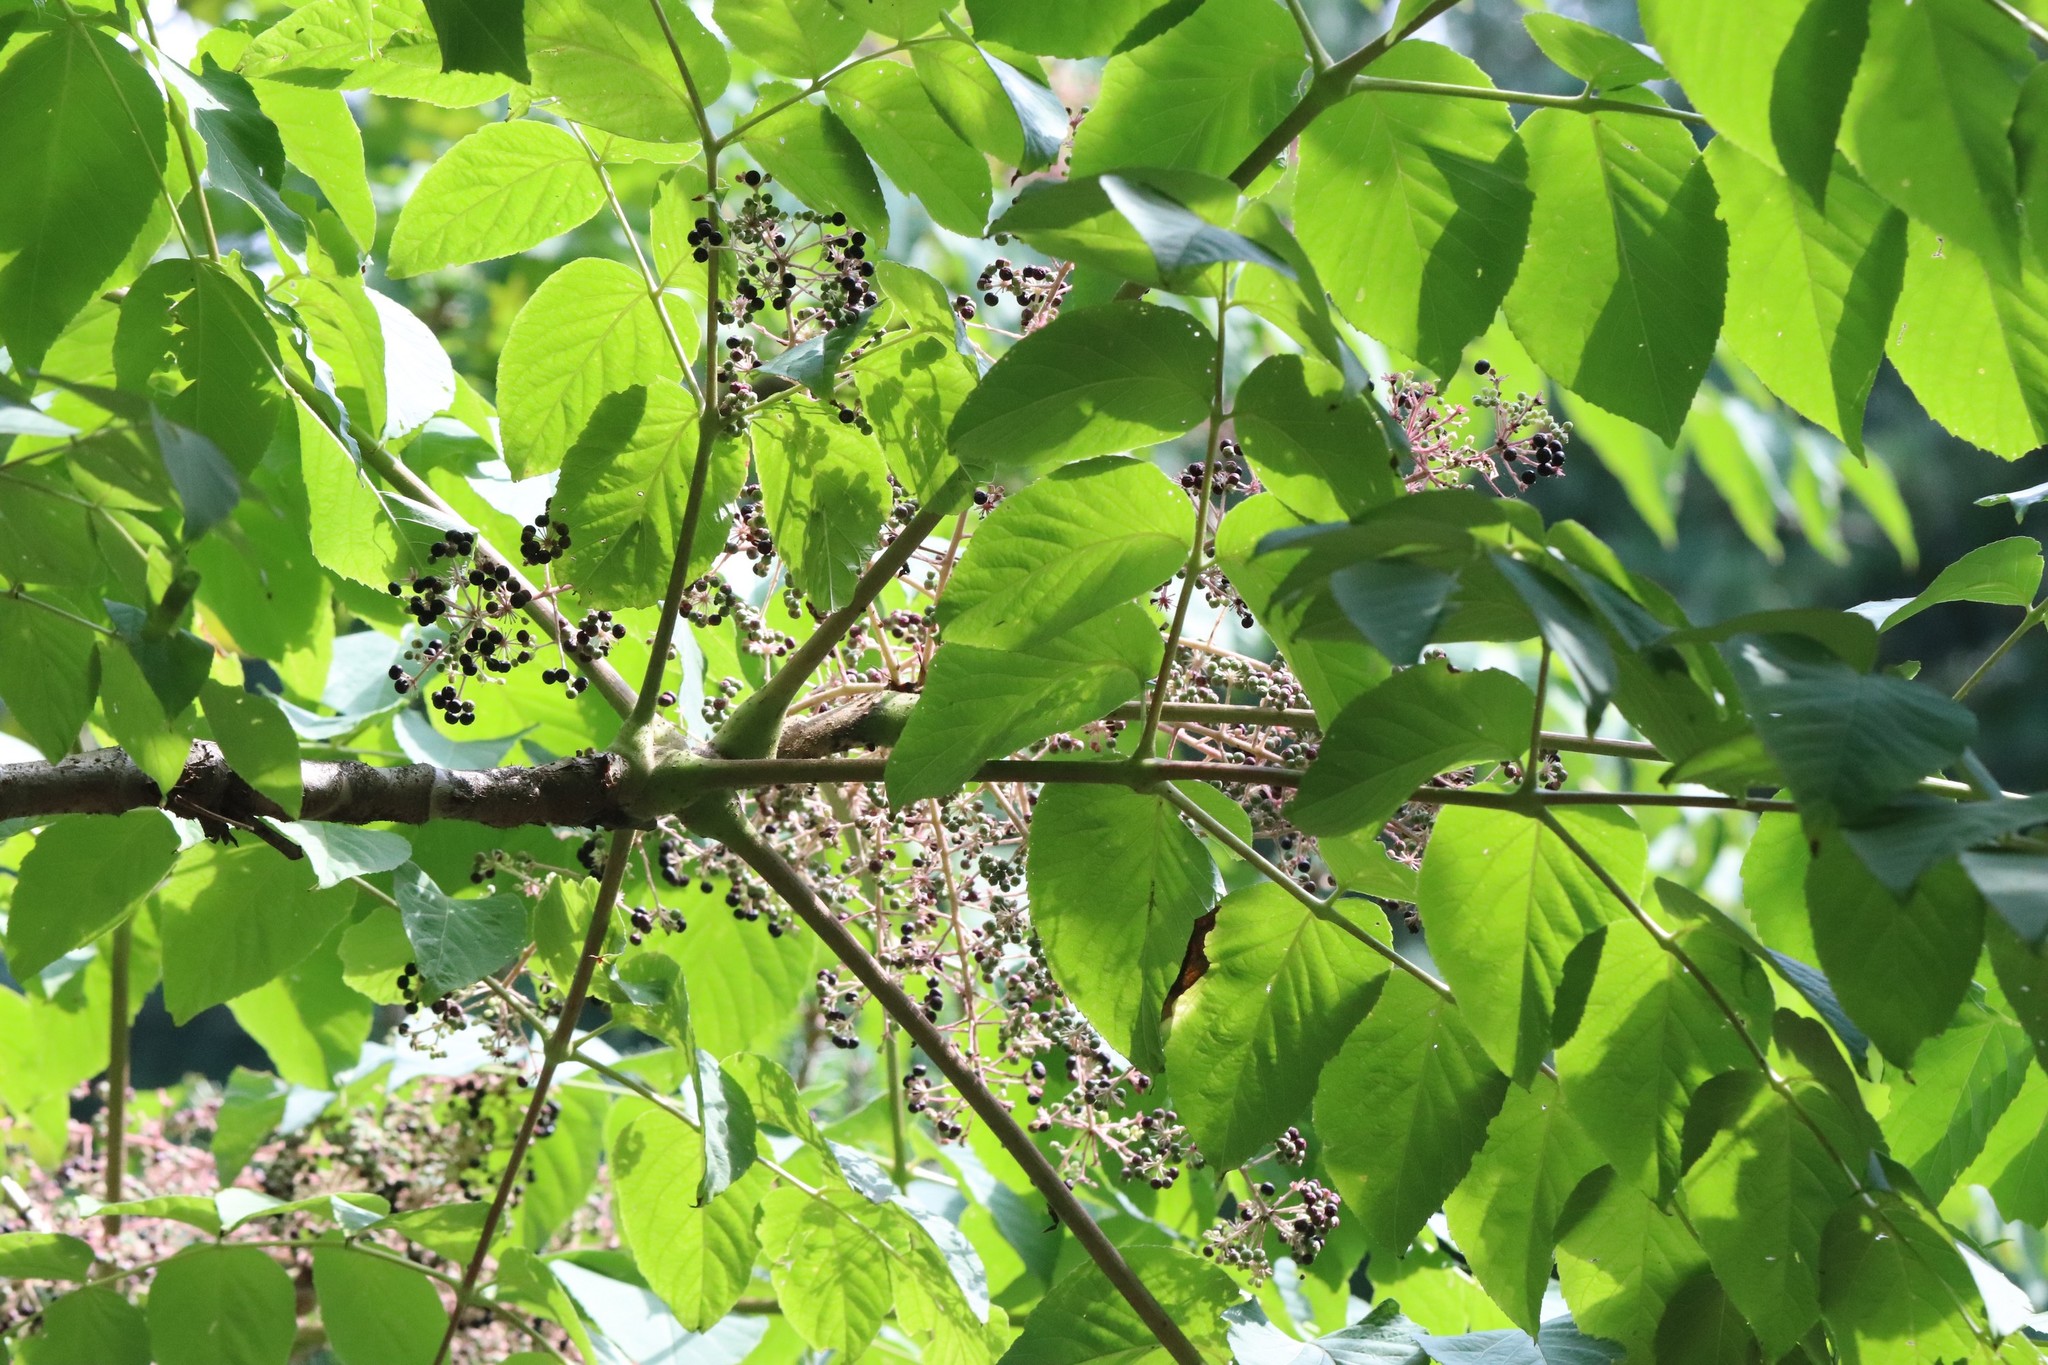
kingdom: Plantae
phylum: Tracheophyta
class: Magnoliopsida
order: Apiales
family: Araliaceae
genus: Aralia
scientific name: Aralia elata
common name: Japanese angelica-tree
